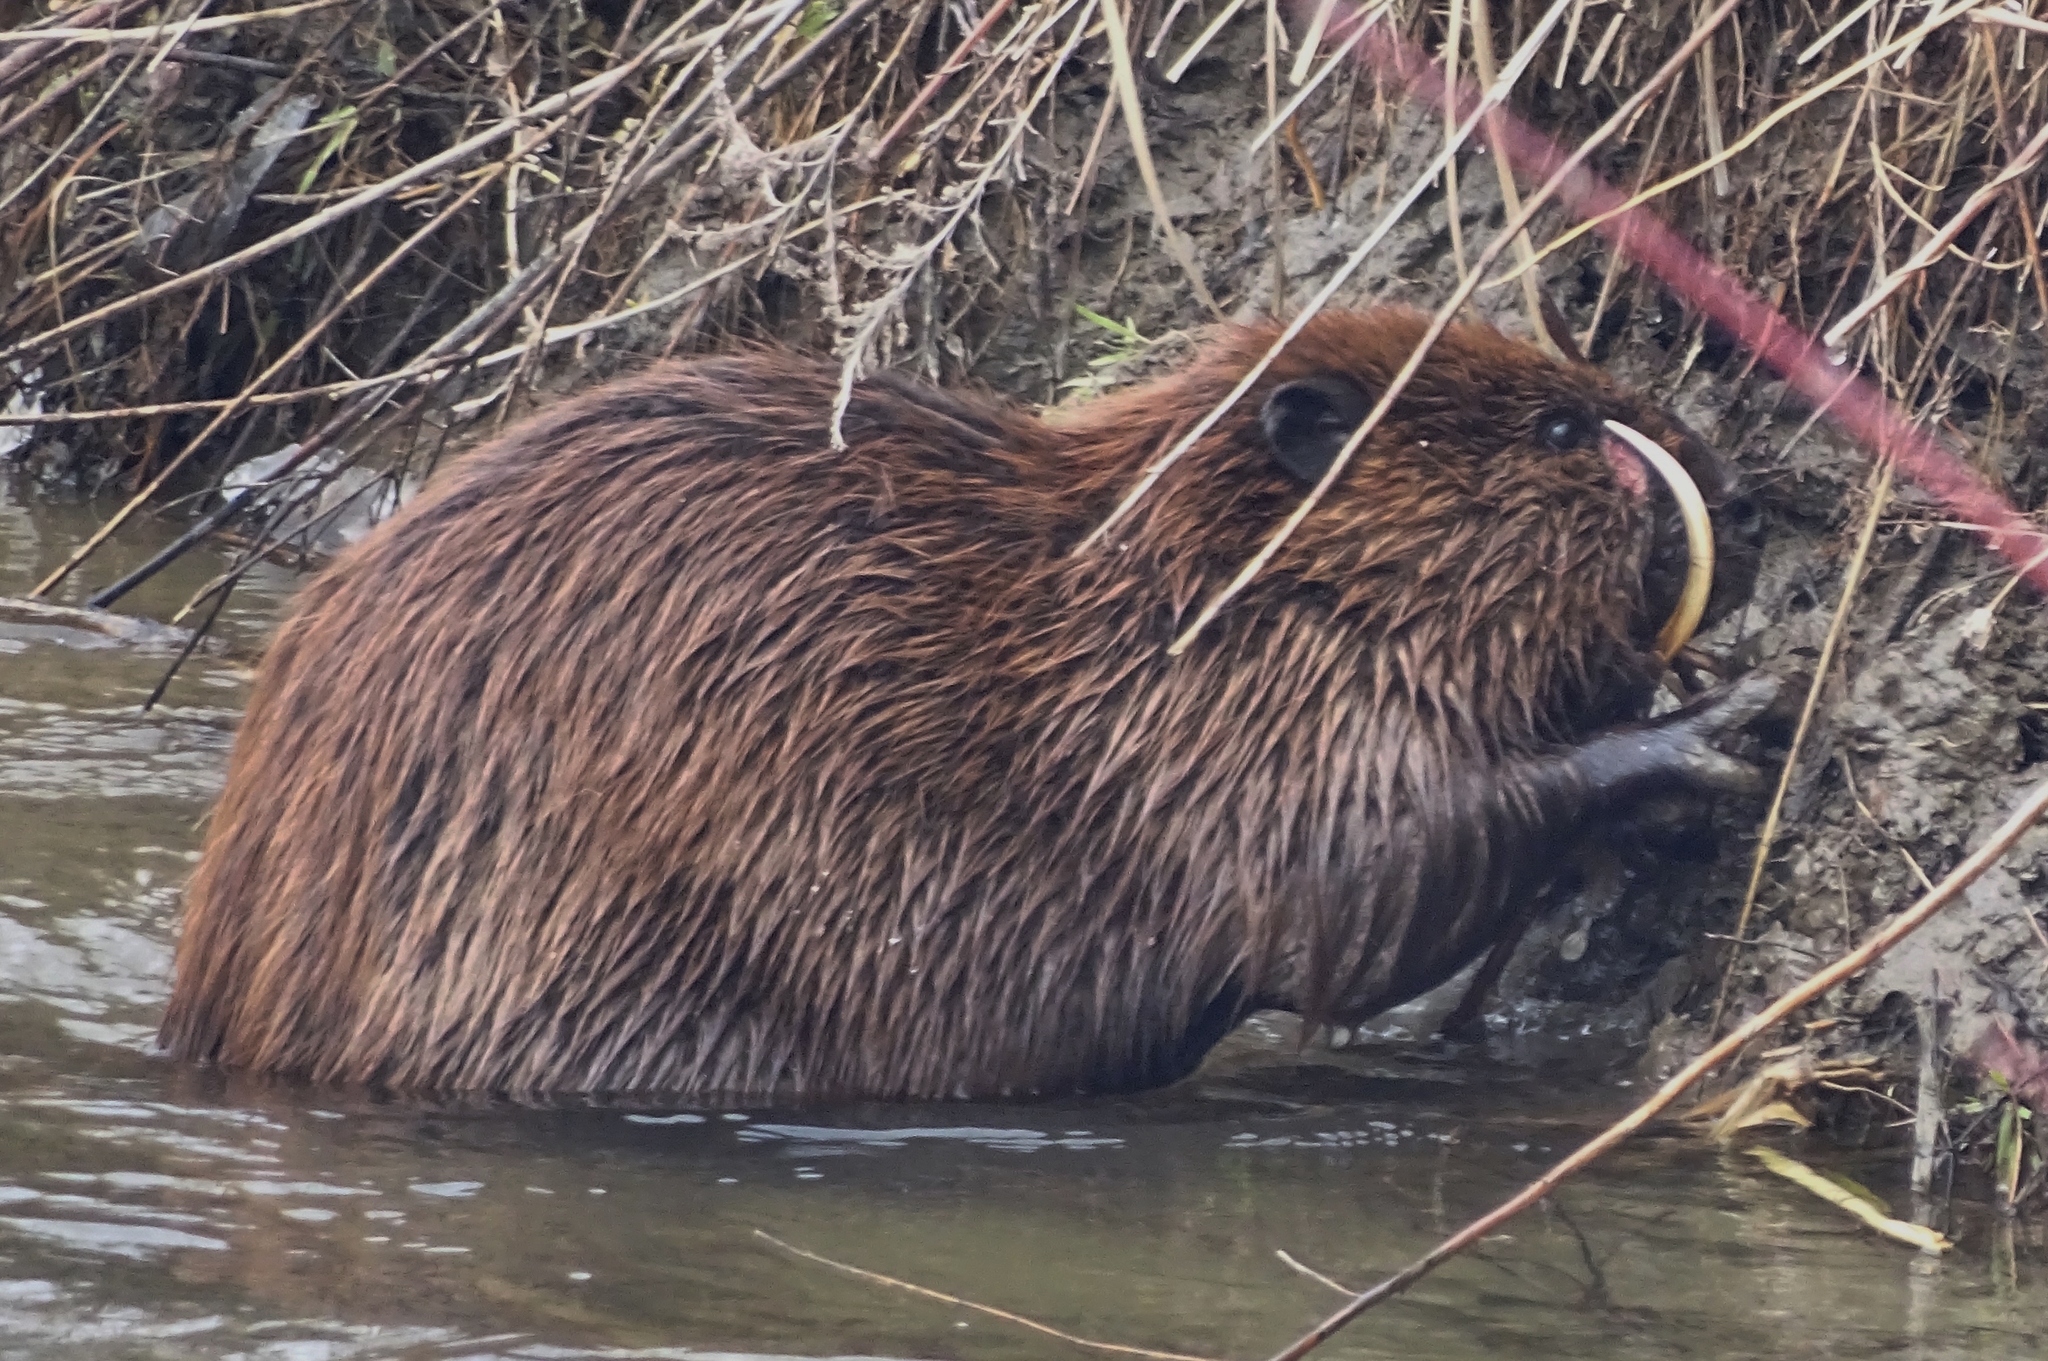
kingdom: Animalia
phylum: Chordata
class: Mammalia
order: Rodentia
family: Castoridae
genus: Castor
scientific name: Castor canadensis
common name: American beaver
